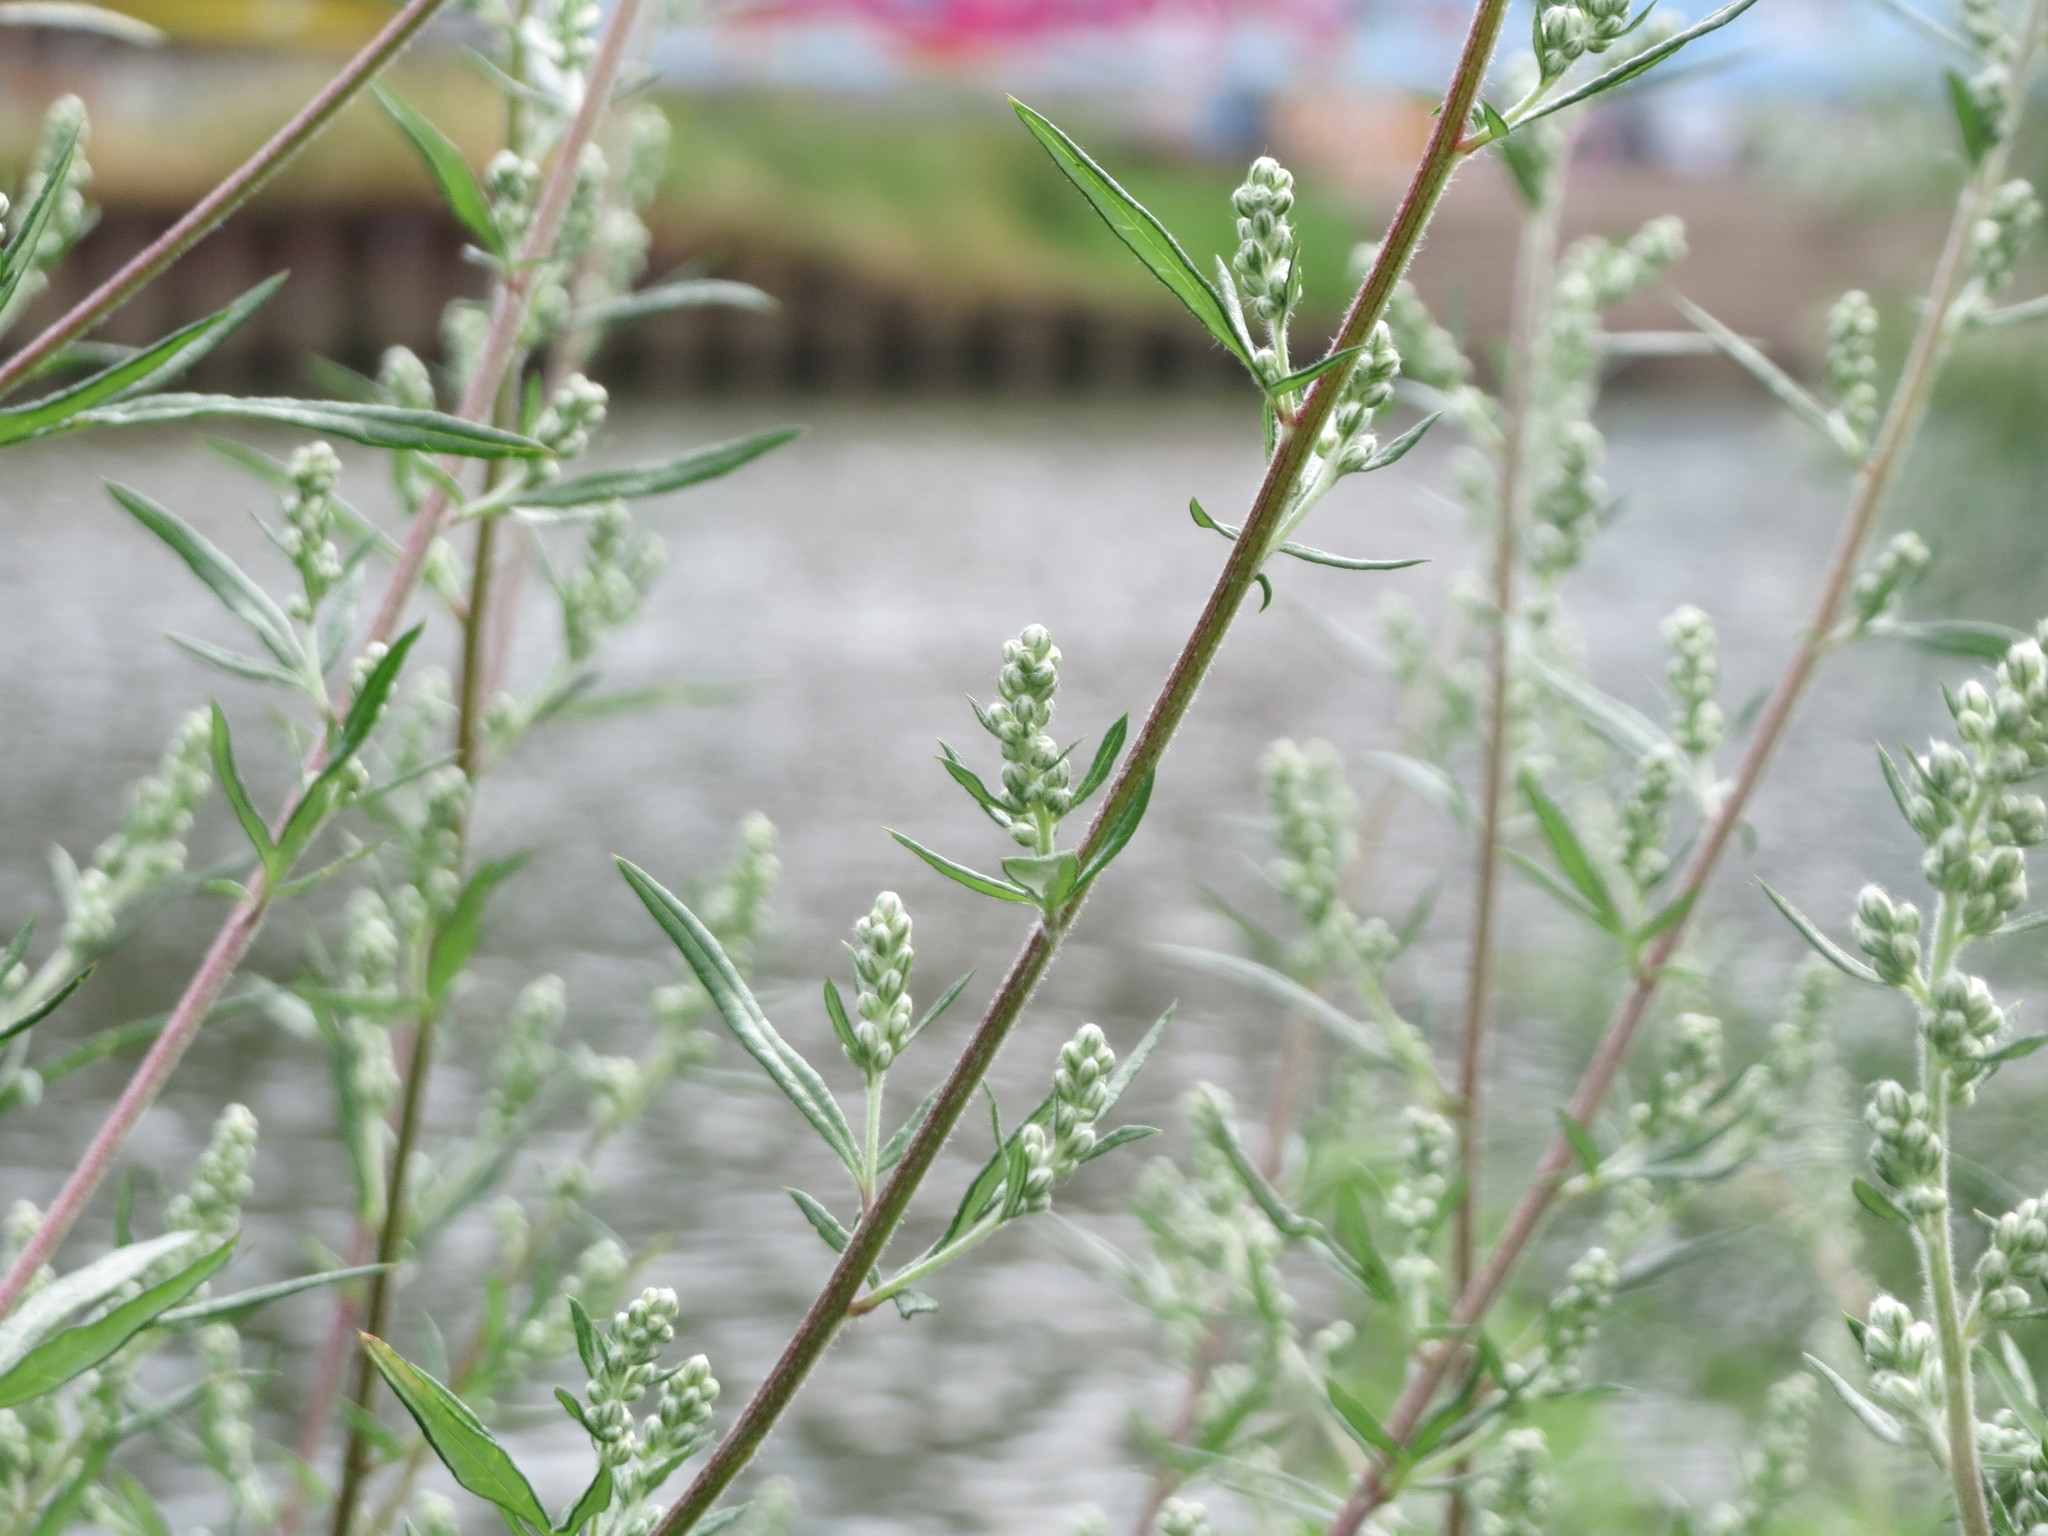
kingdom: Plantae
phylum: Tracheophyta
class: Magnoliopsida
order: Asterales
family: Asteraceae
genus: Artemisia
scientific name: Artemisia vulgaris
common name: Mugwort
